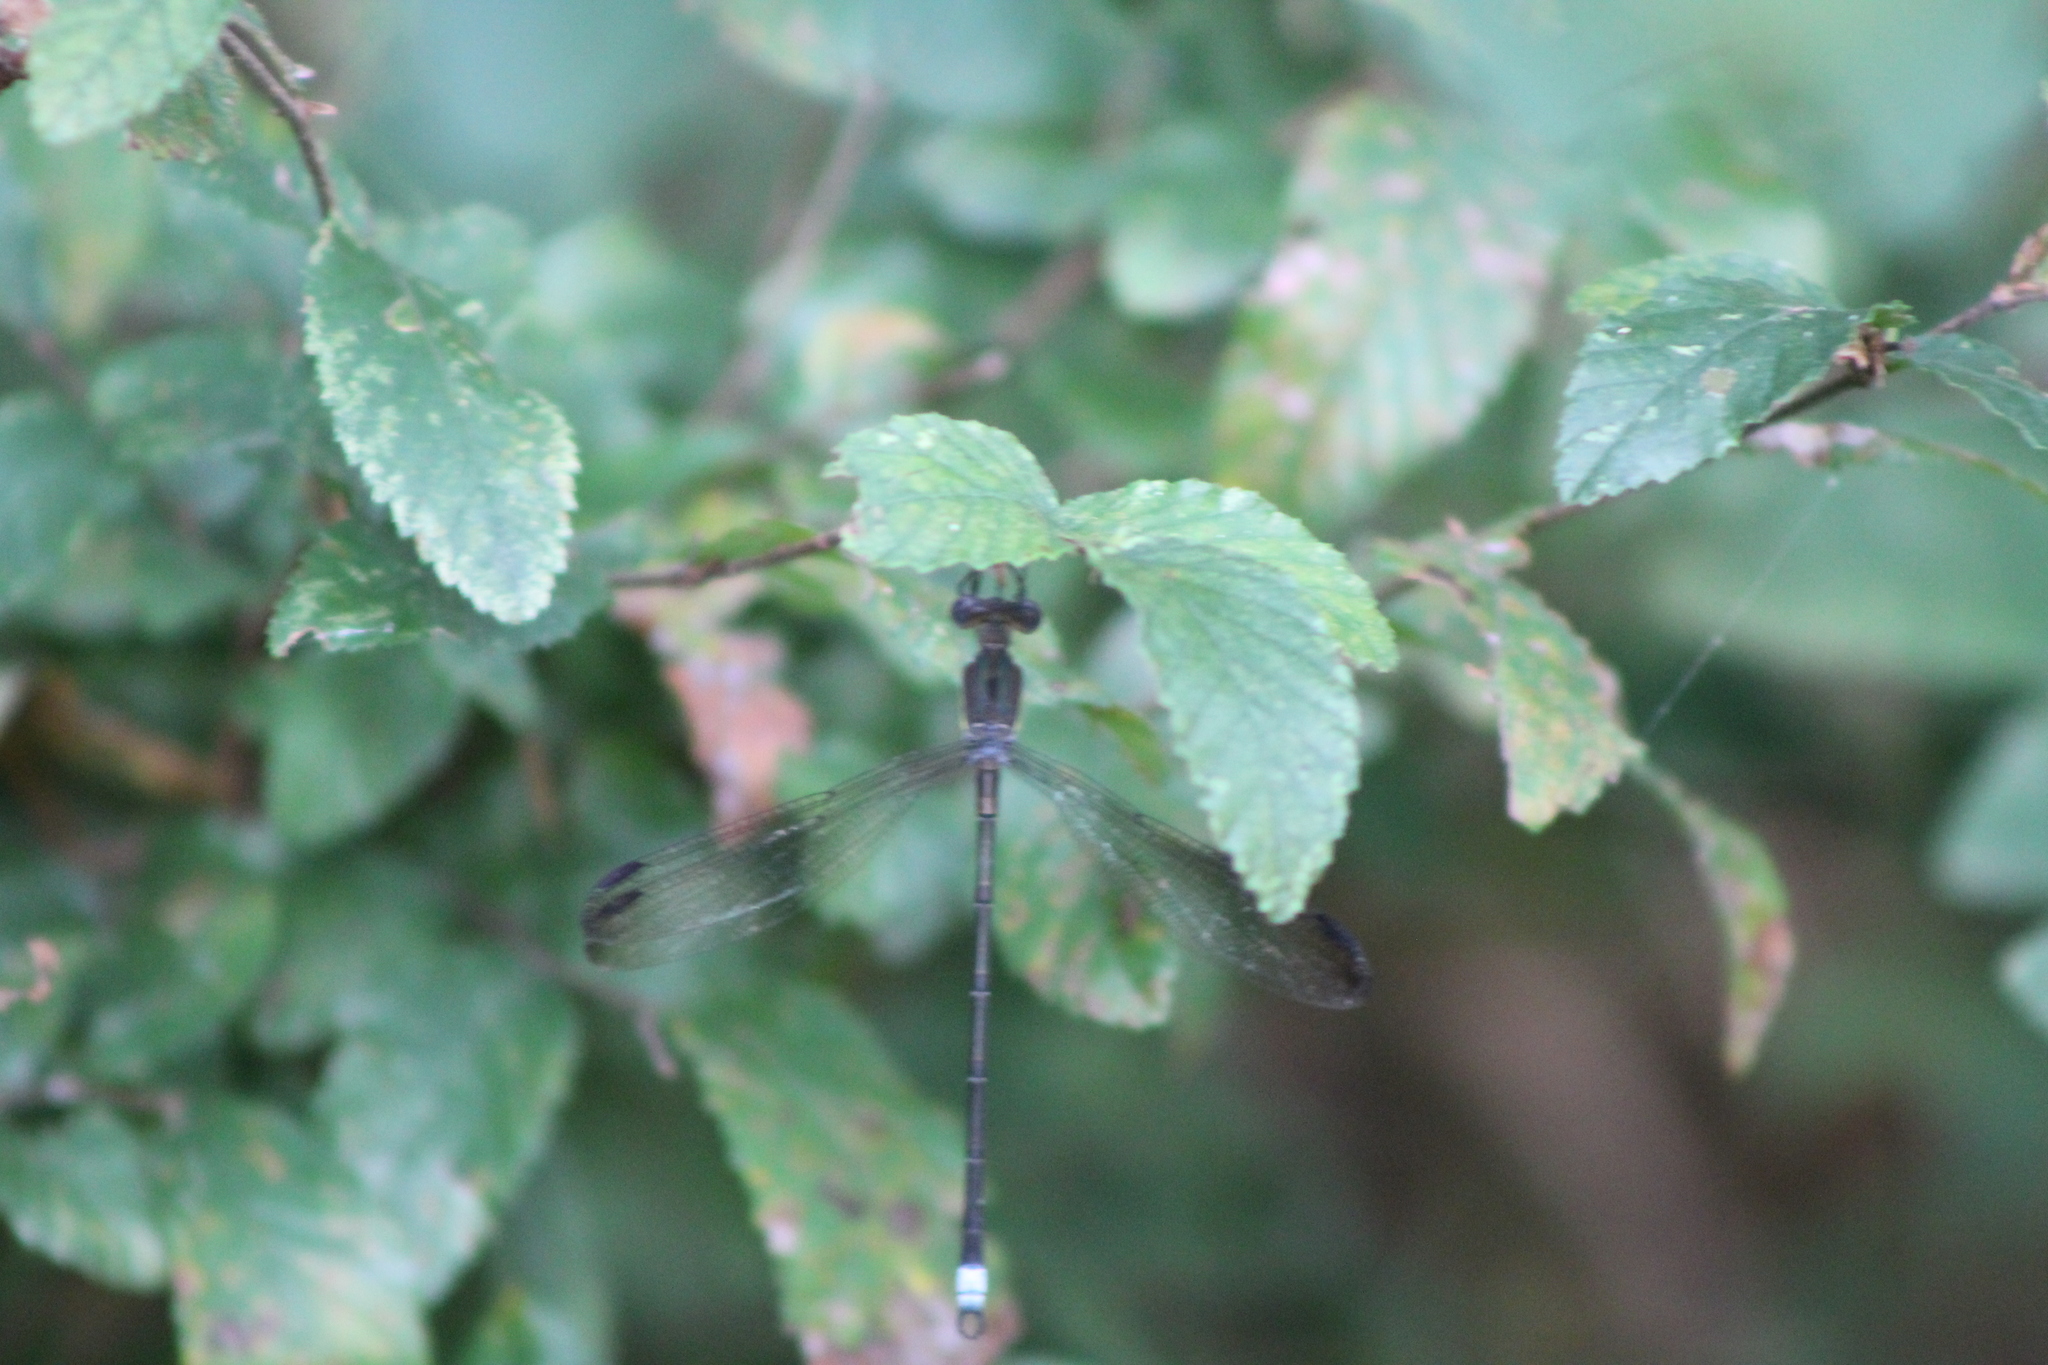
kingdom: Animalia
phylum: Arthropoda
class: Insecta
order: Odonata
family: Lestidae
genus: Archilestes
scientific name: Archilestes grandis
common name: Great spreadwing
